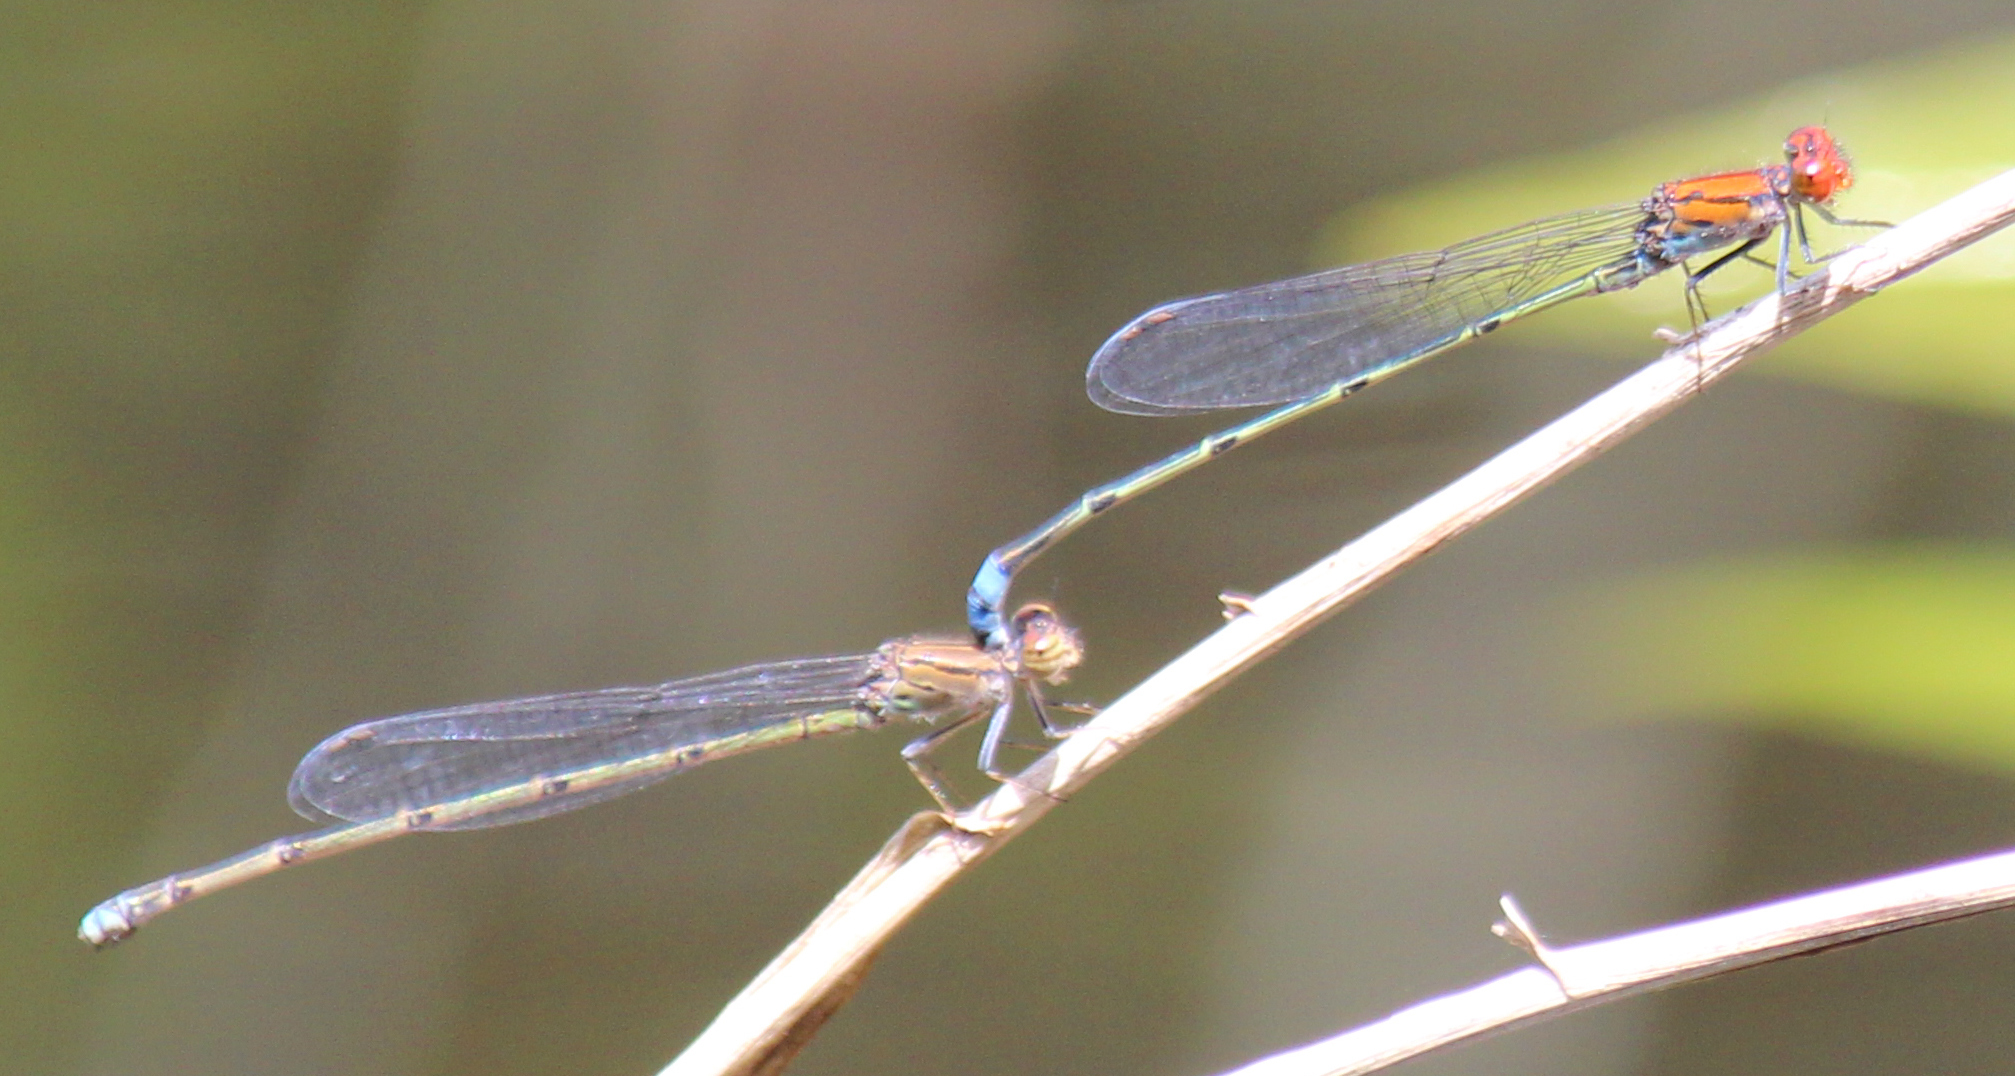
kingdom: Animalia
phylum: Arthropoda
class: Insecta
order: Odonata
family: Coenagrionidae
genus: Pseudagrion
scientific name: Pseudagrion massaicum
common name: Masai sprite
